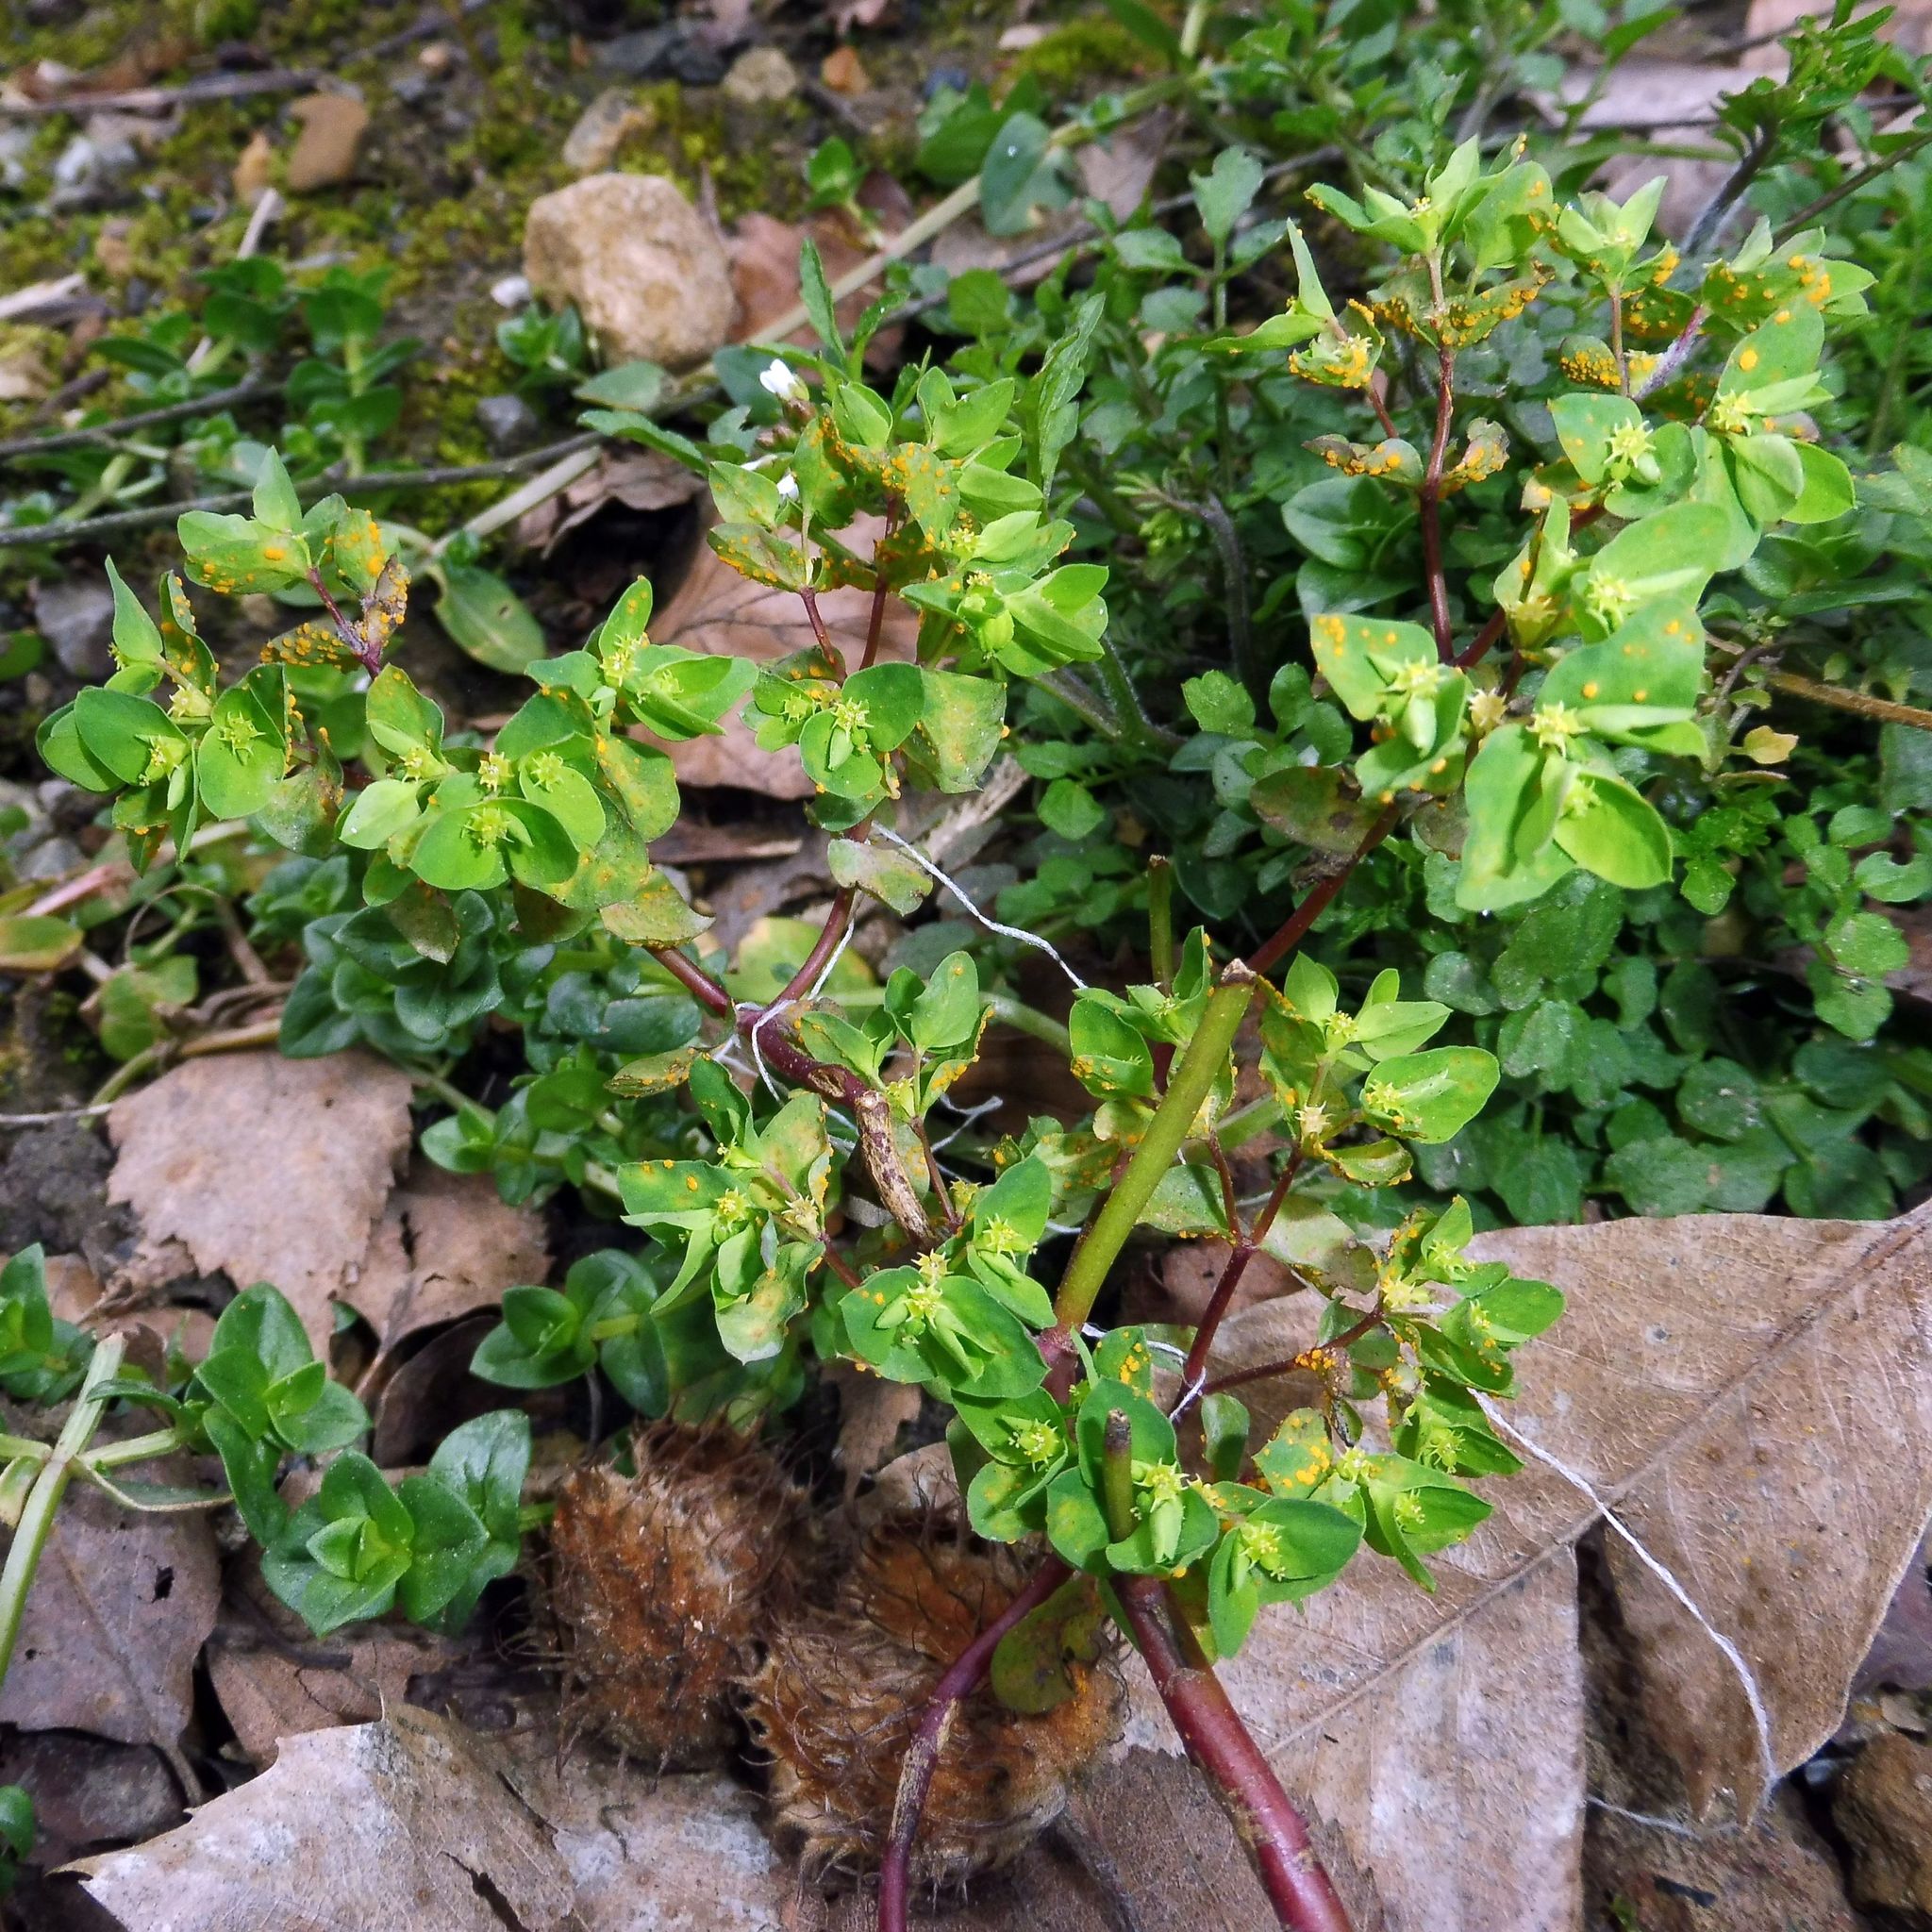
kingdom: Plantae
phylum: Tracheophyta
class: Magnoliopsida
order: Malpighiales
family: Euphorbiaceae
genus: Euphorbia
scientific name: Euphorbia peplus
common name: Petty spurge
